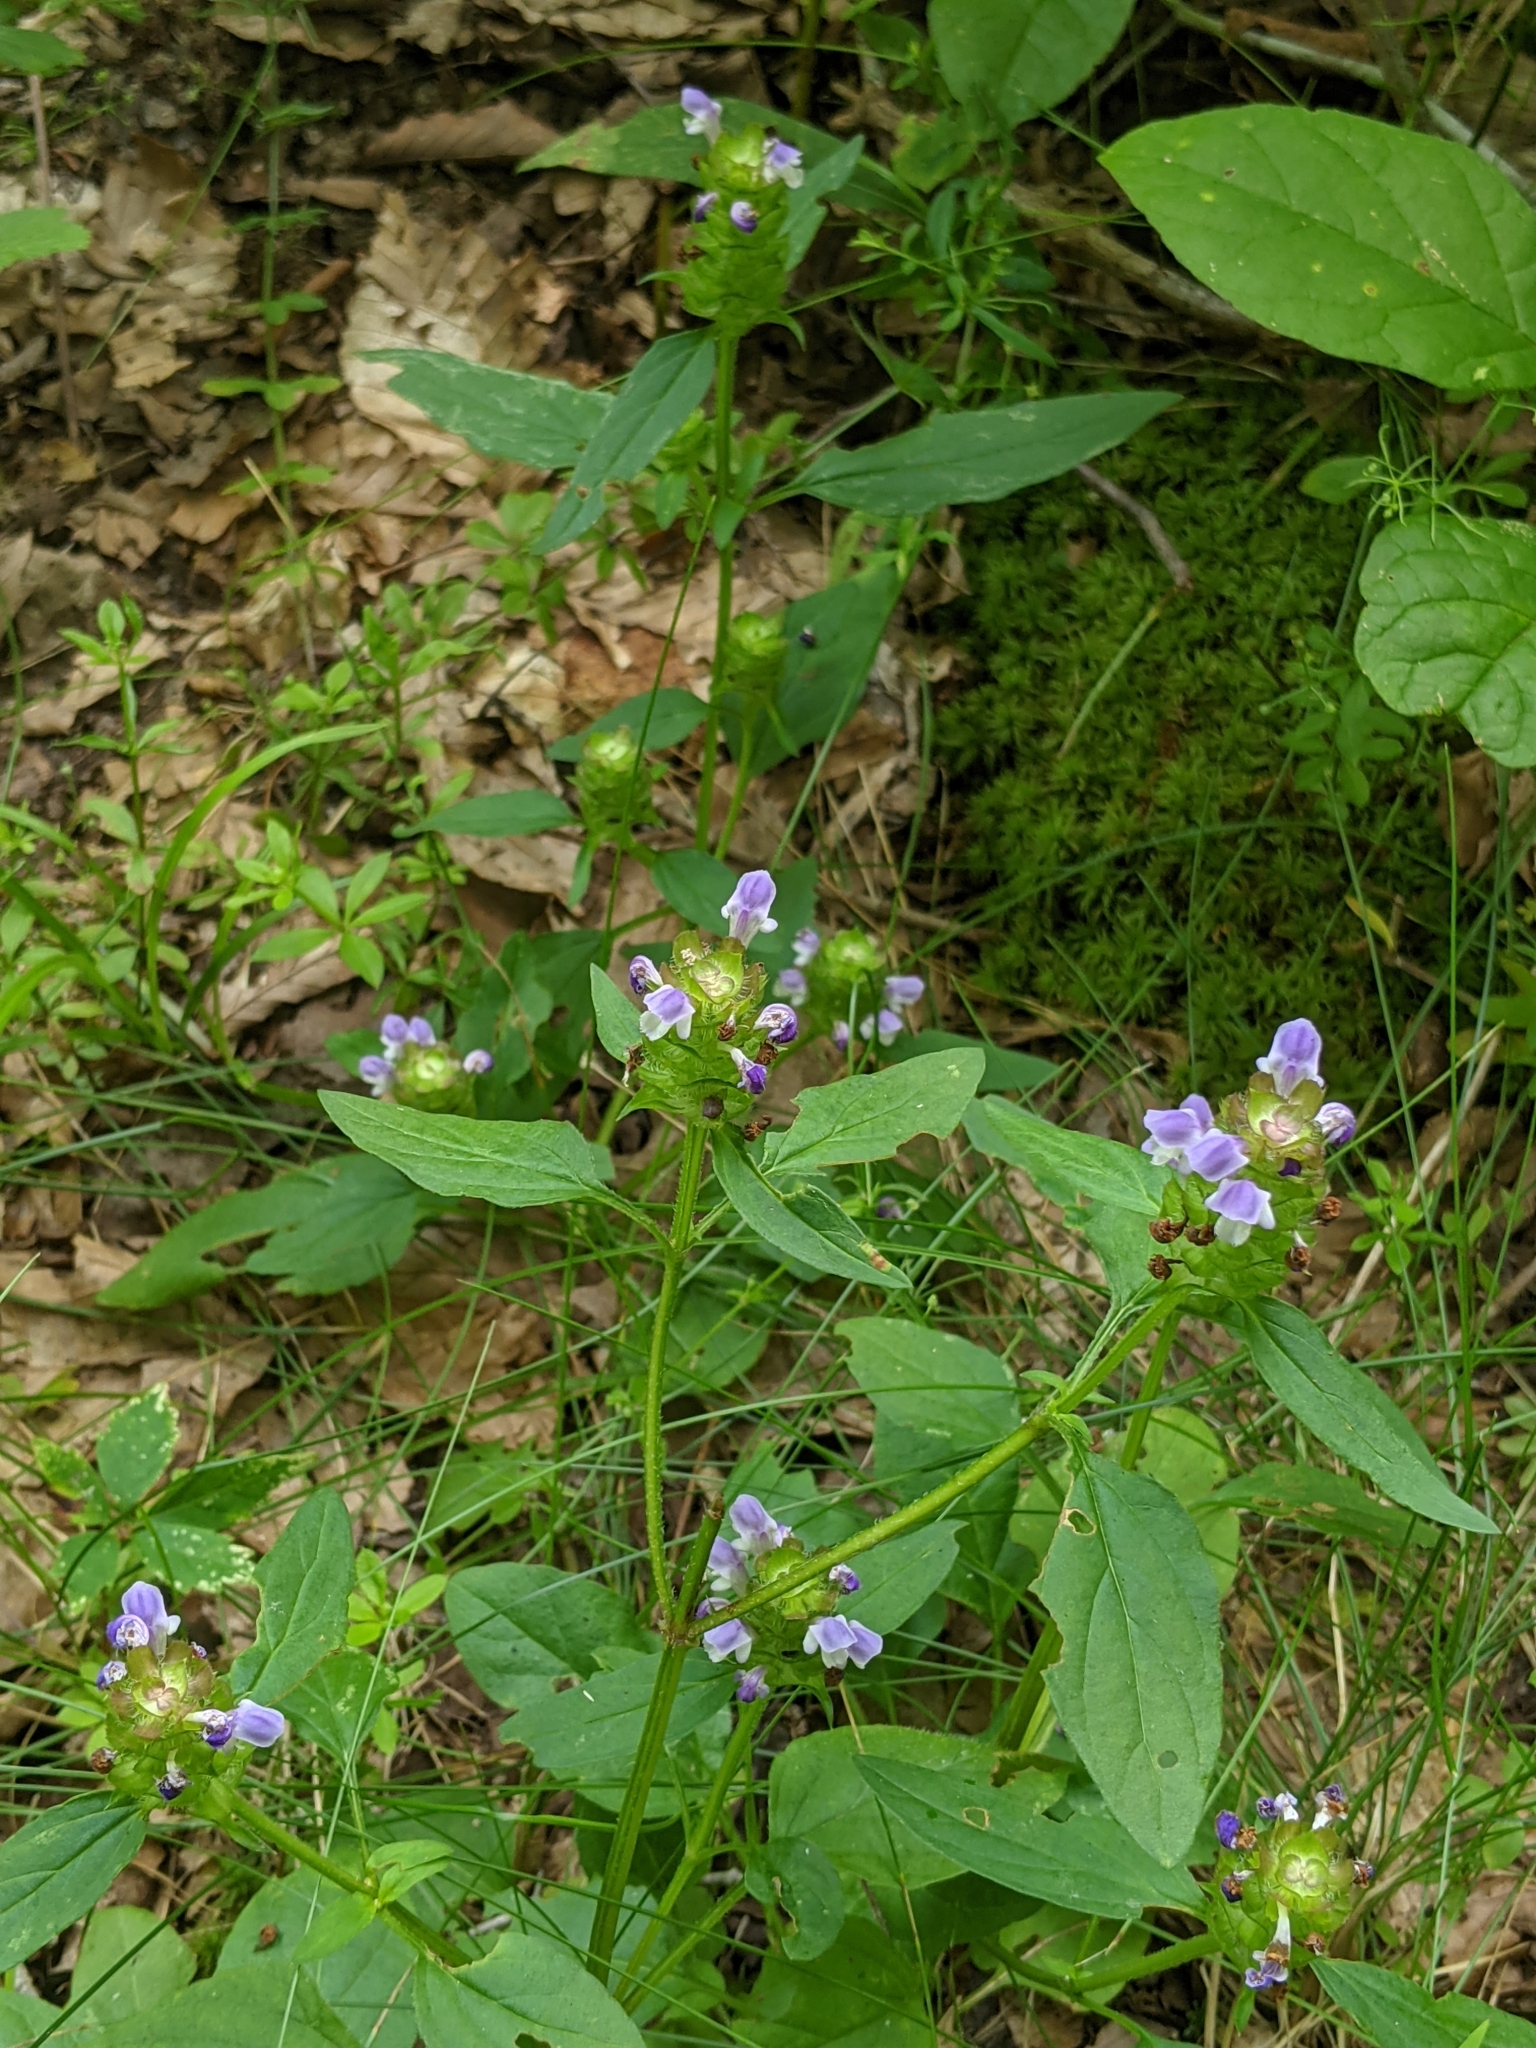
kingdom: Plantae
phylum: Tracheophyta
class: Magnoliopsida
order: Lamiales
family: Lamiaceae
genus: Prunella
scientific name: Prunella vulgaris
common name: Heal-all
